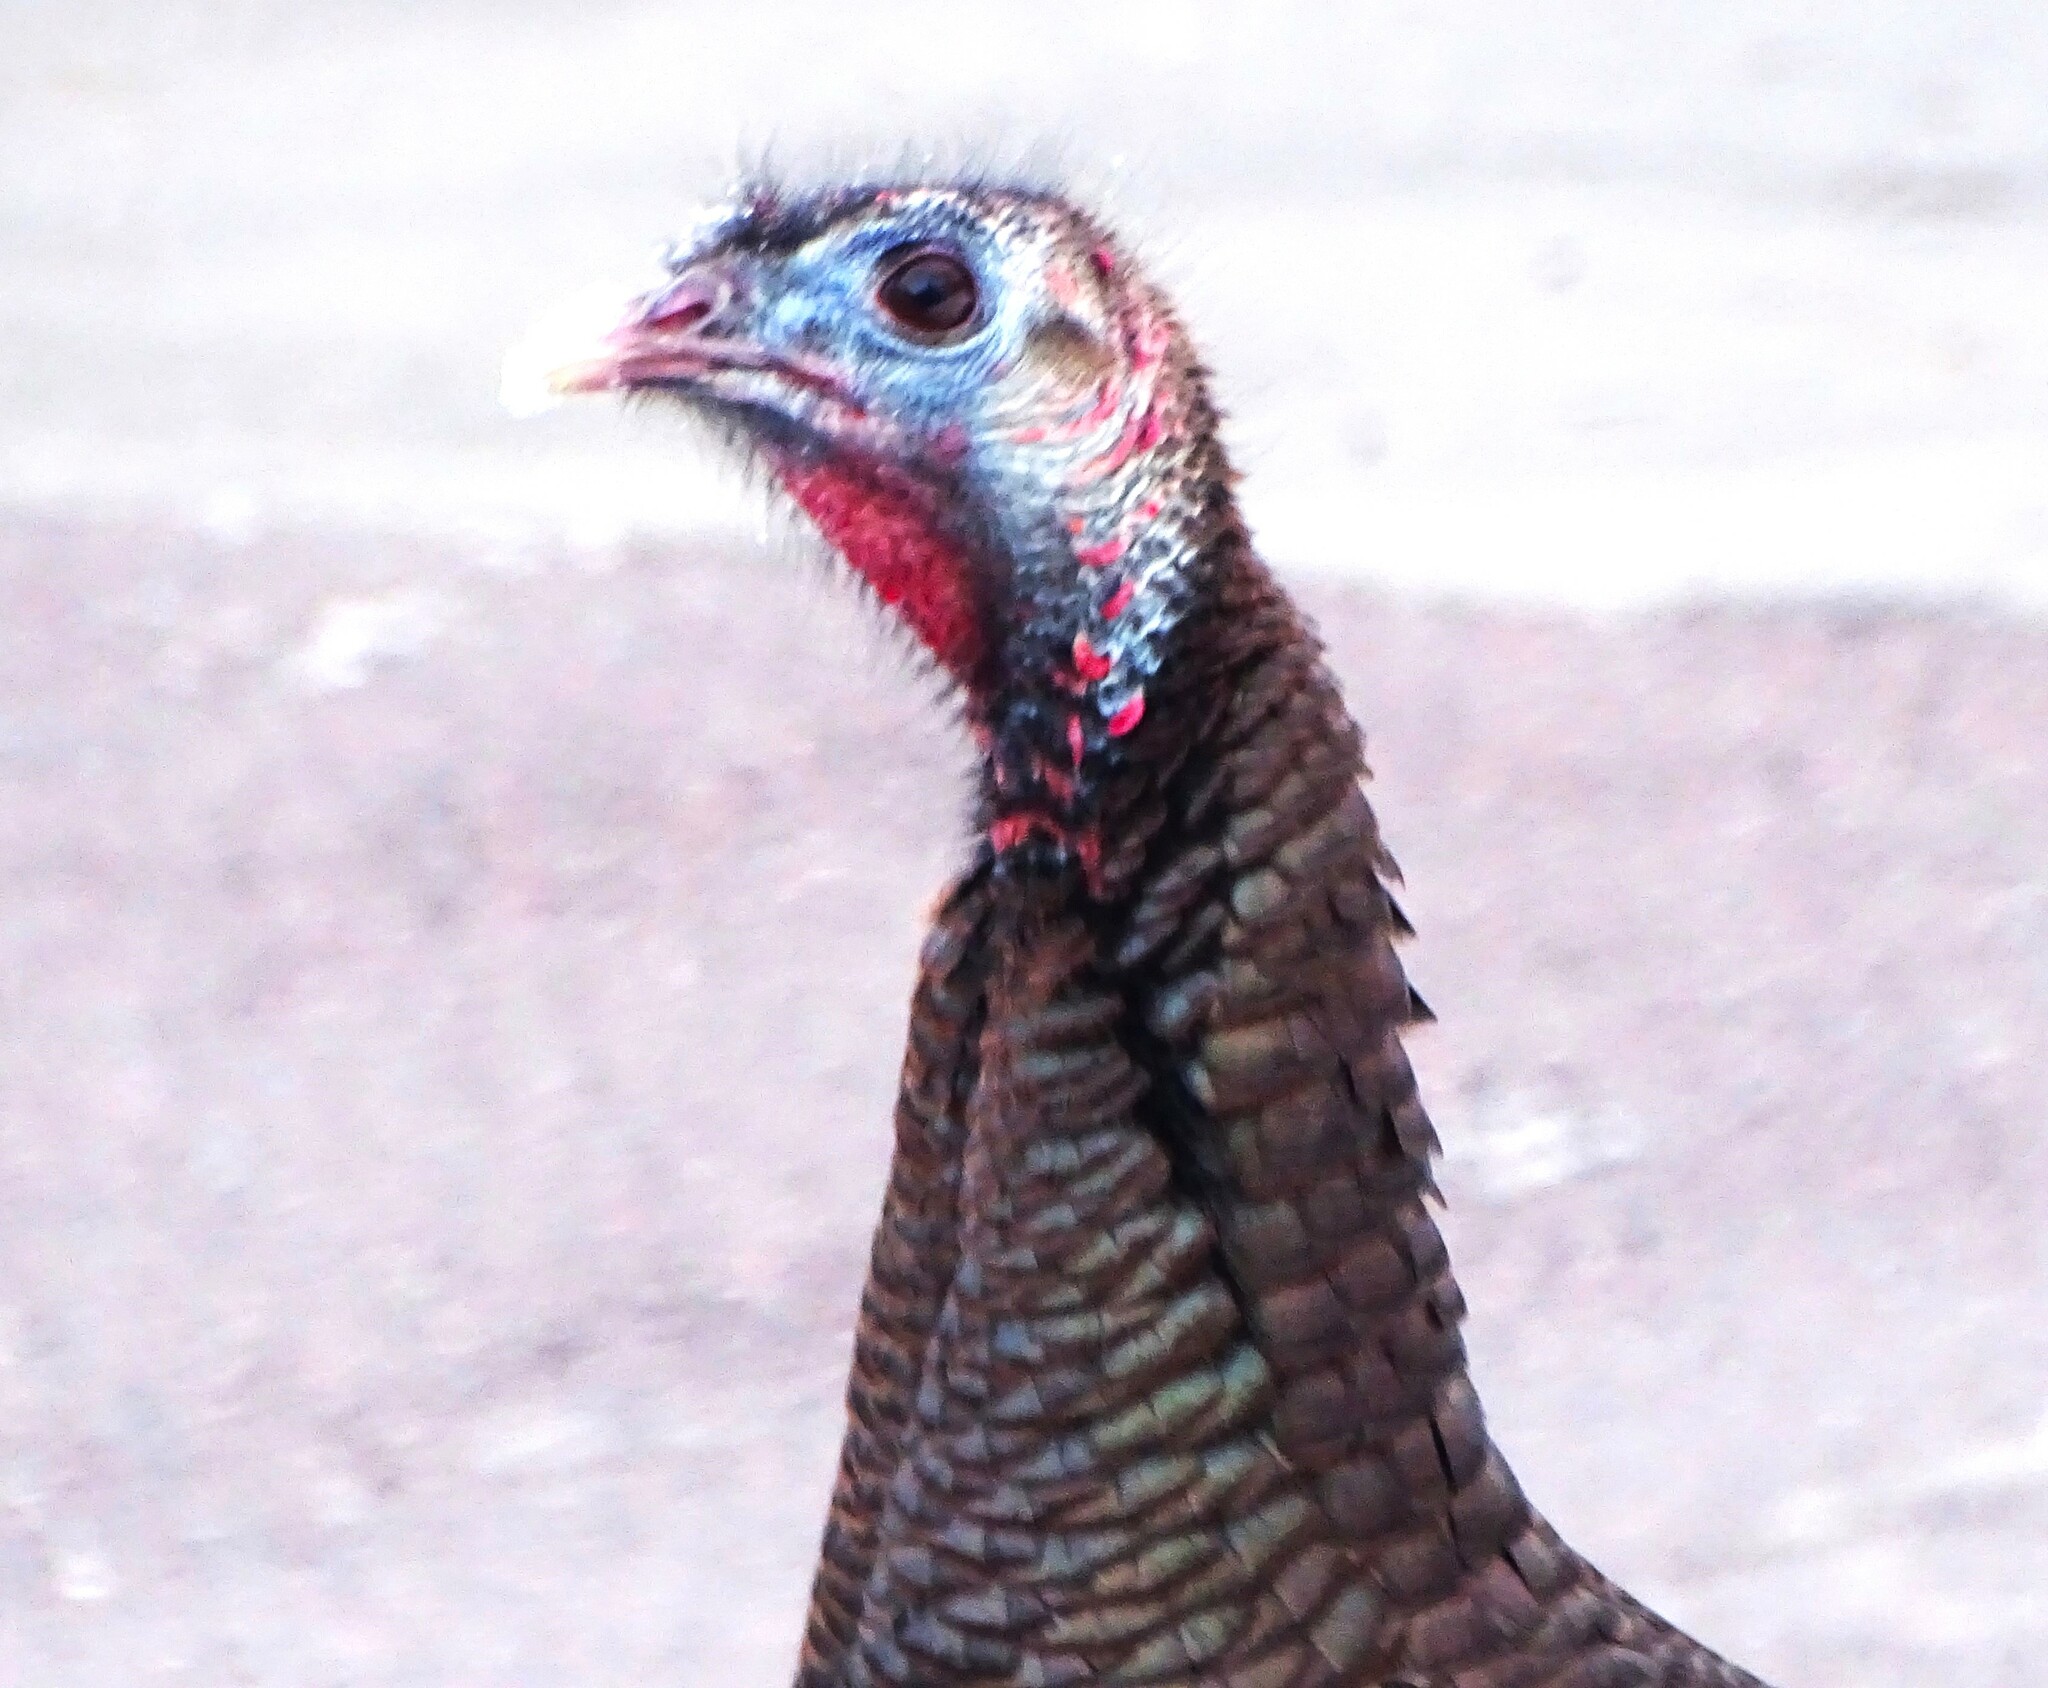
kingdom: Animalia
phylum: Chordata
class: Aves
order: Galliformes
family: Phasianidae
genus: Meleagris
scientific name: Meleagris gallopavo
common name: Wild turkey
